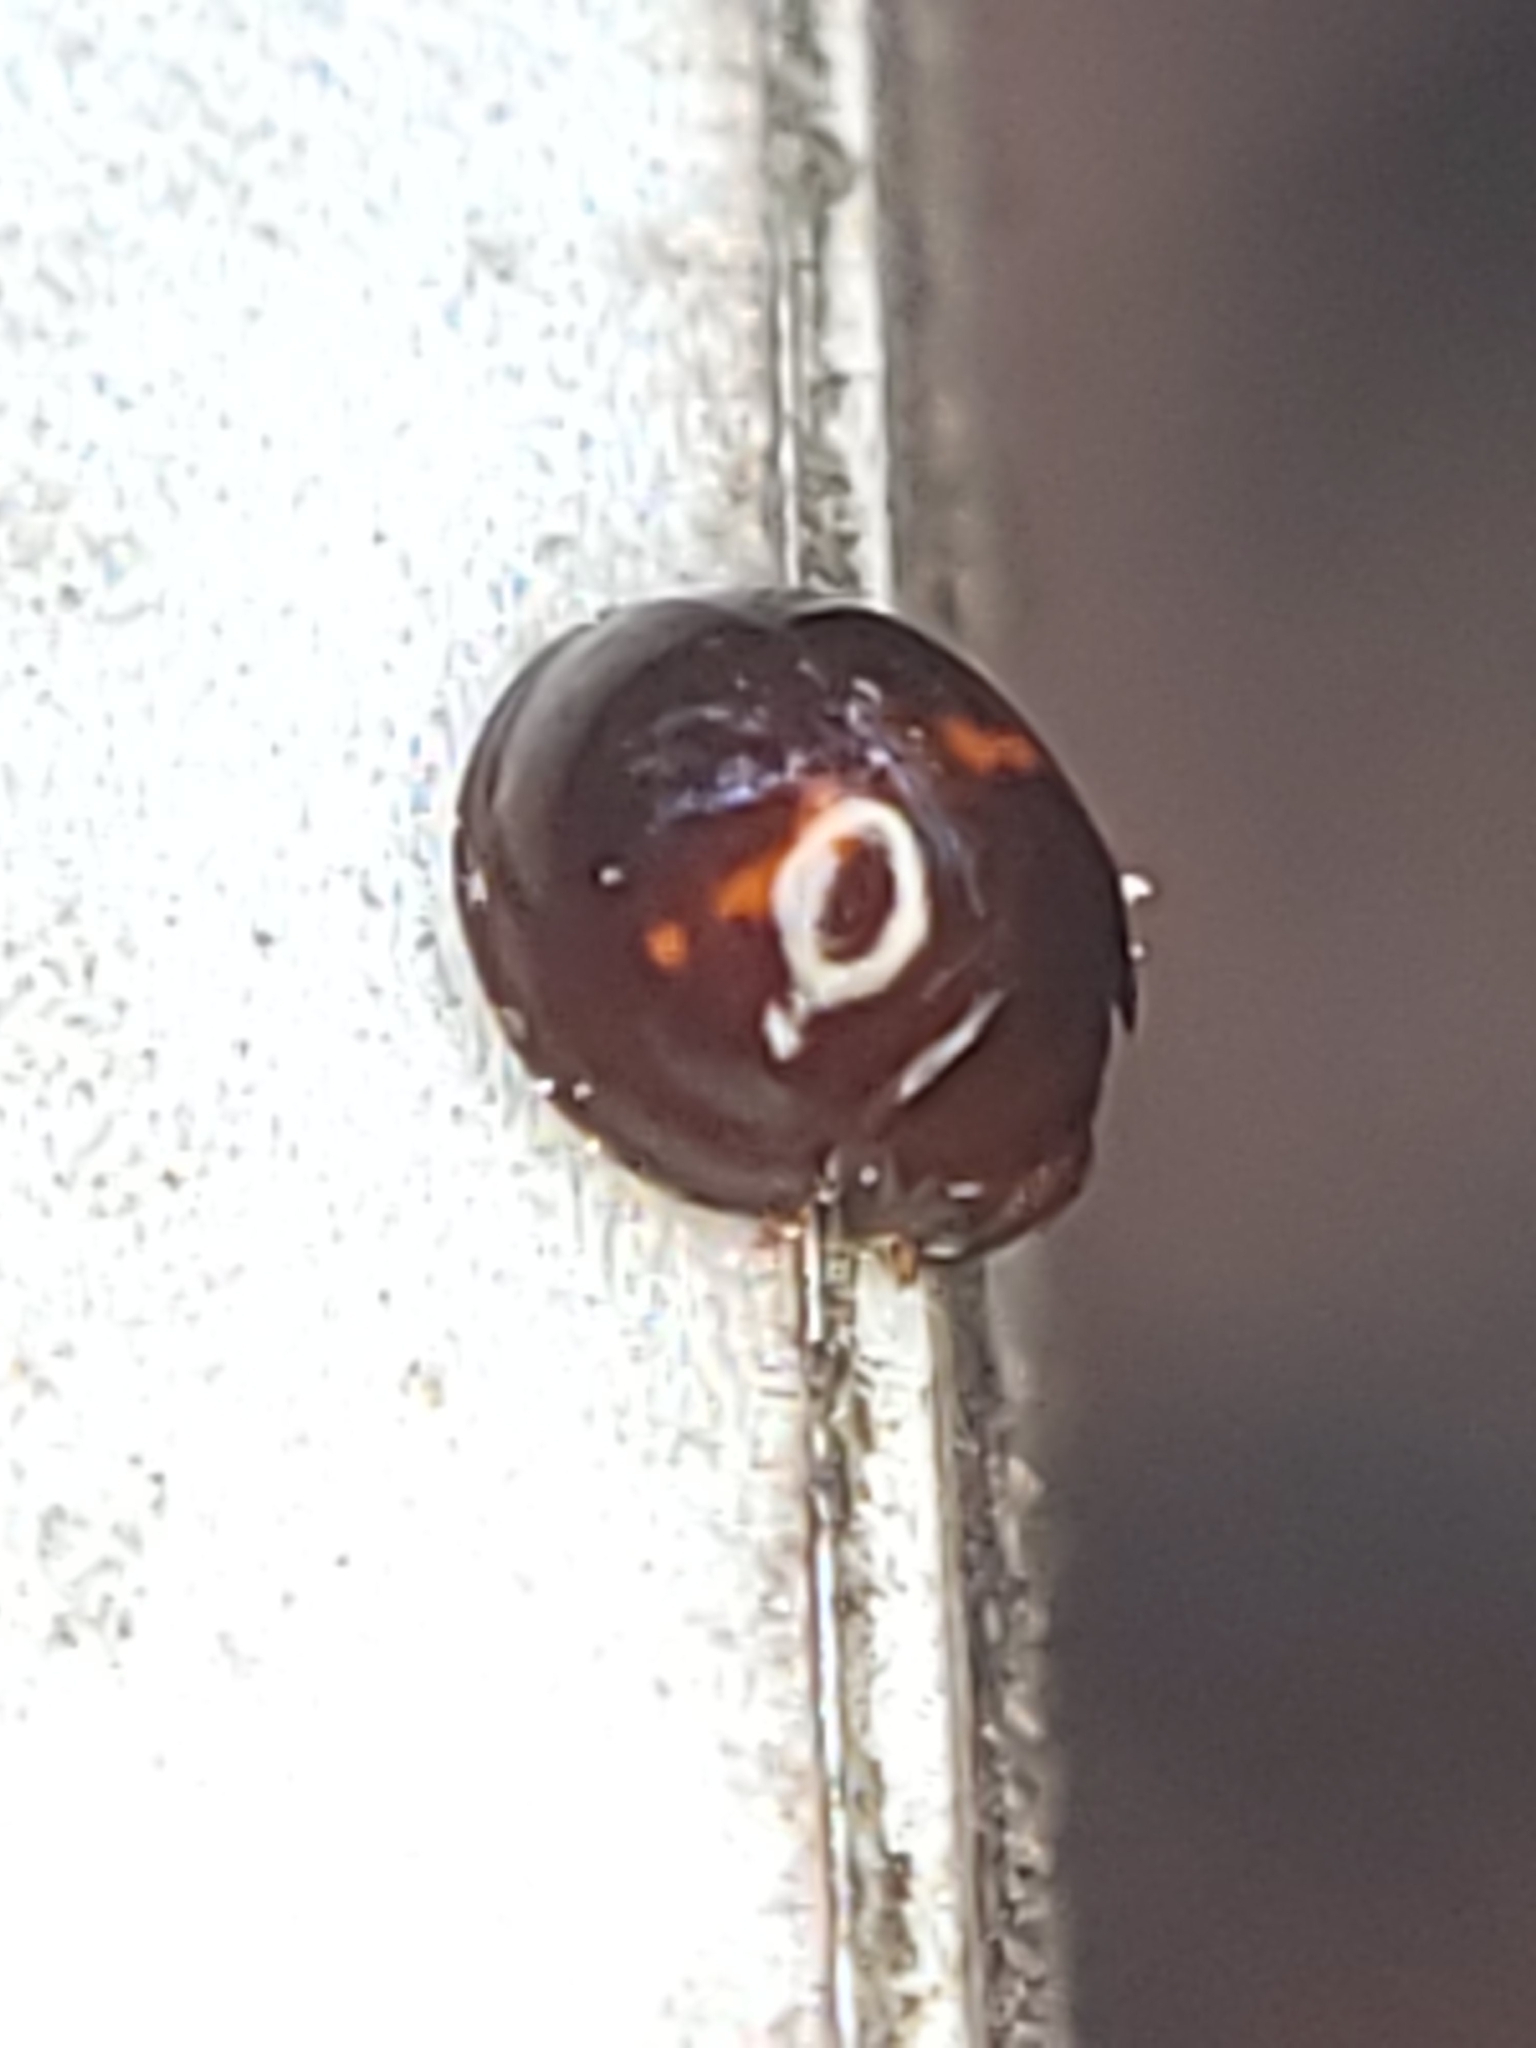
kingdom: Animalia
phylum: Arthropoda
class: Insecta
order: Coleoptera
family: Coccinellidae
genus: Chilocorus
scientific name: Chilocorus bipustulatus
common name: Heather ladybird
